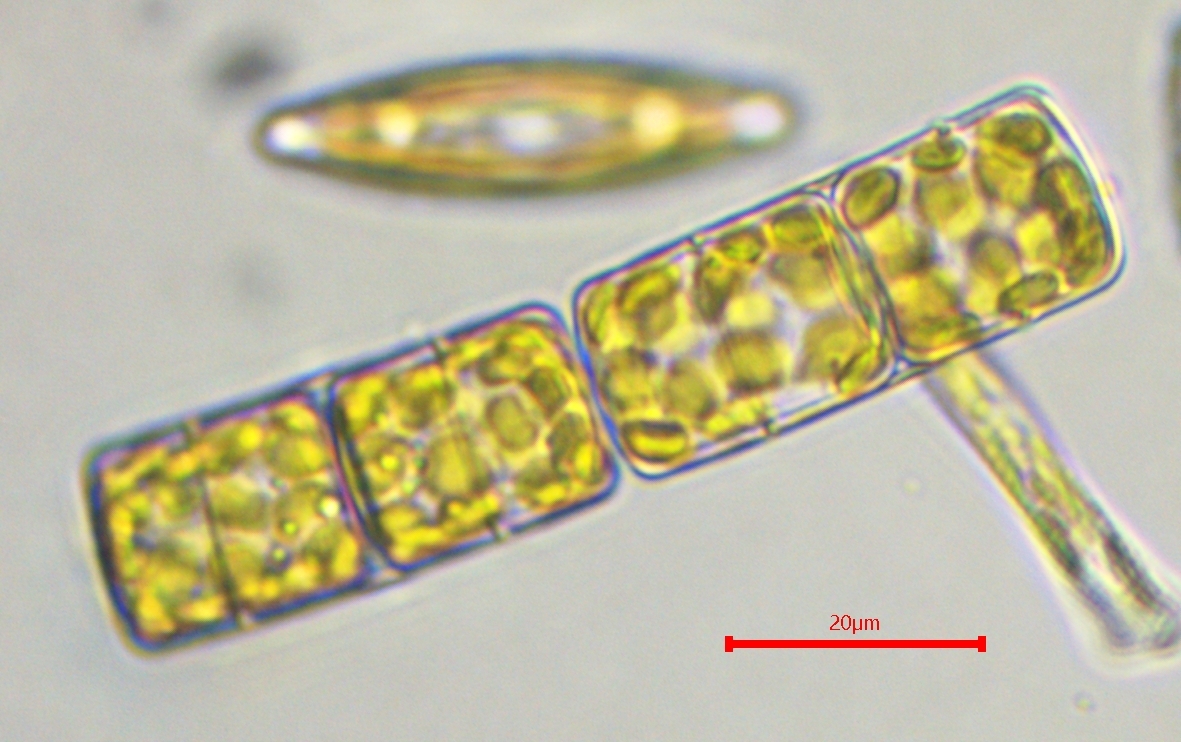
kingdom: Chromista
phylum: Ochrophyta
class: Bacillariophyceae
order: Melosirales
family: Melosiraceae
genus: Melosira
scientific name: Melosira varians
